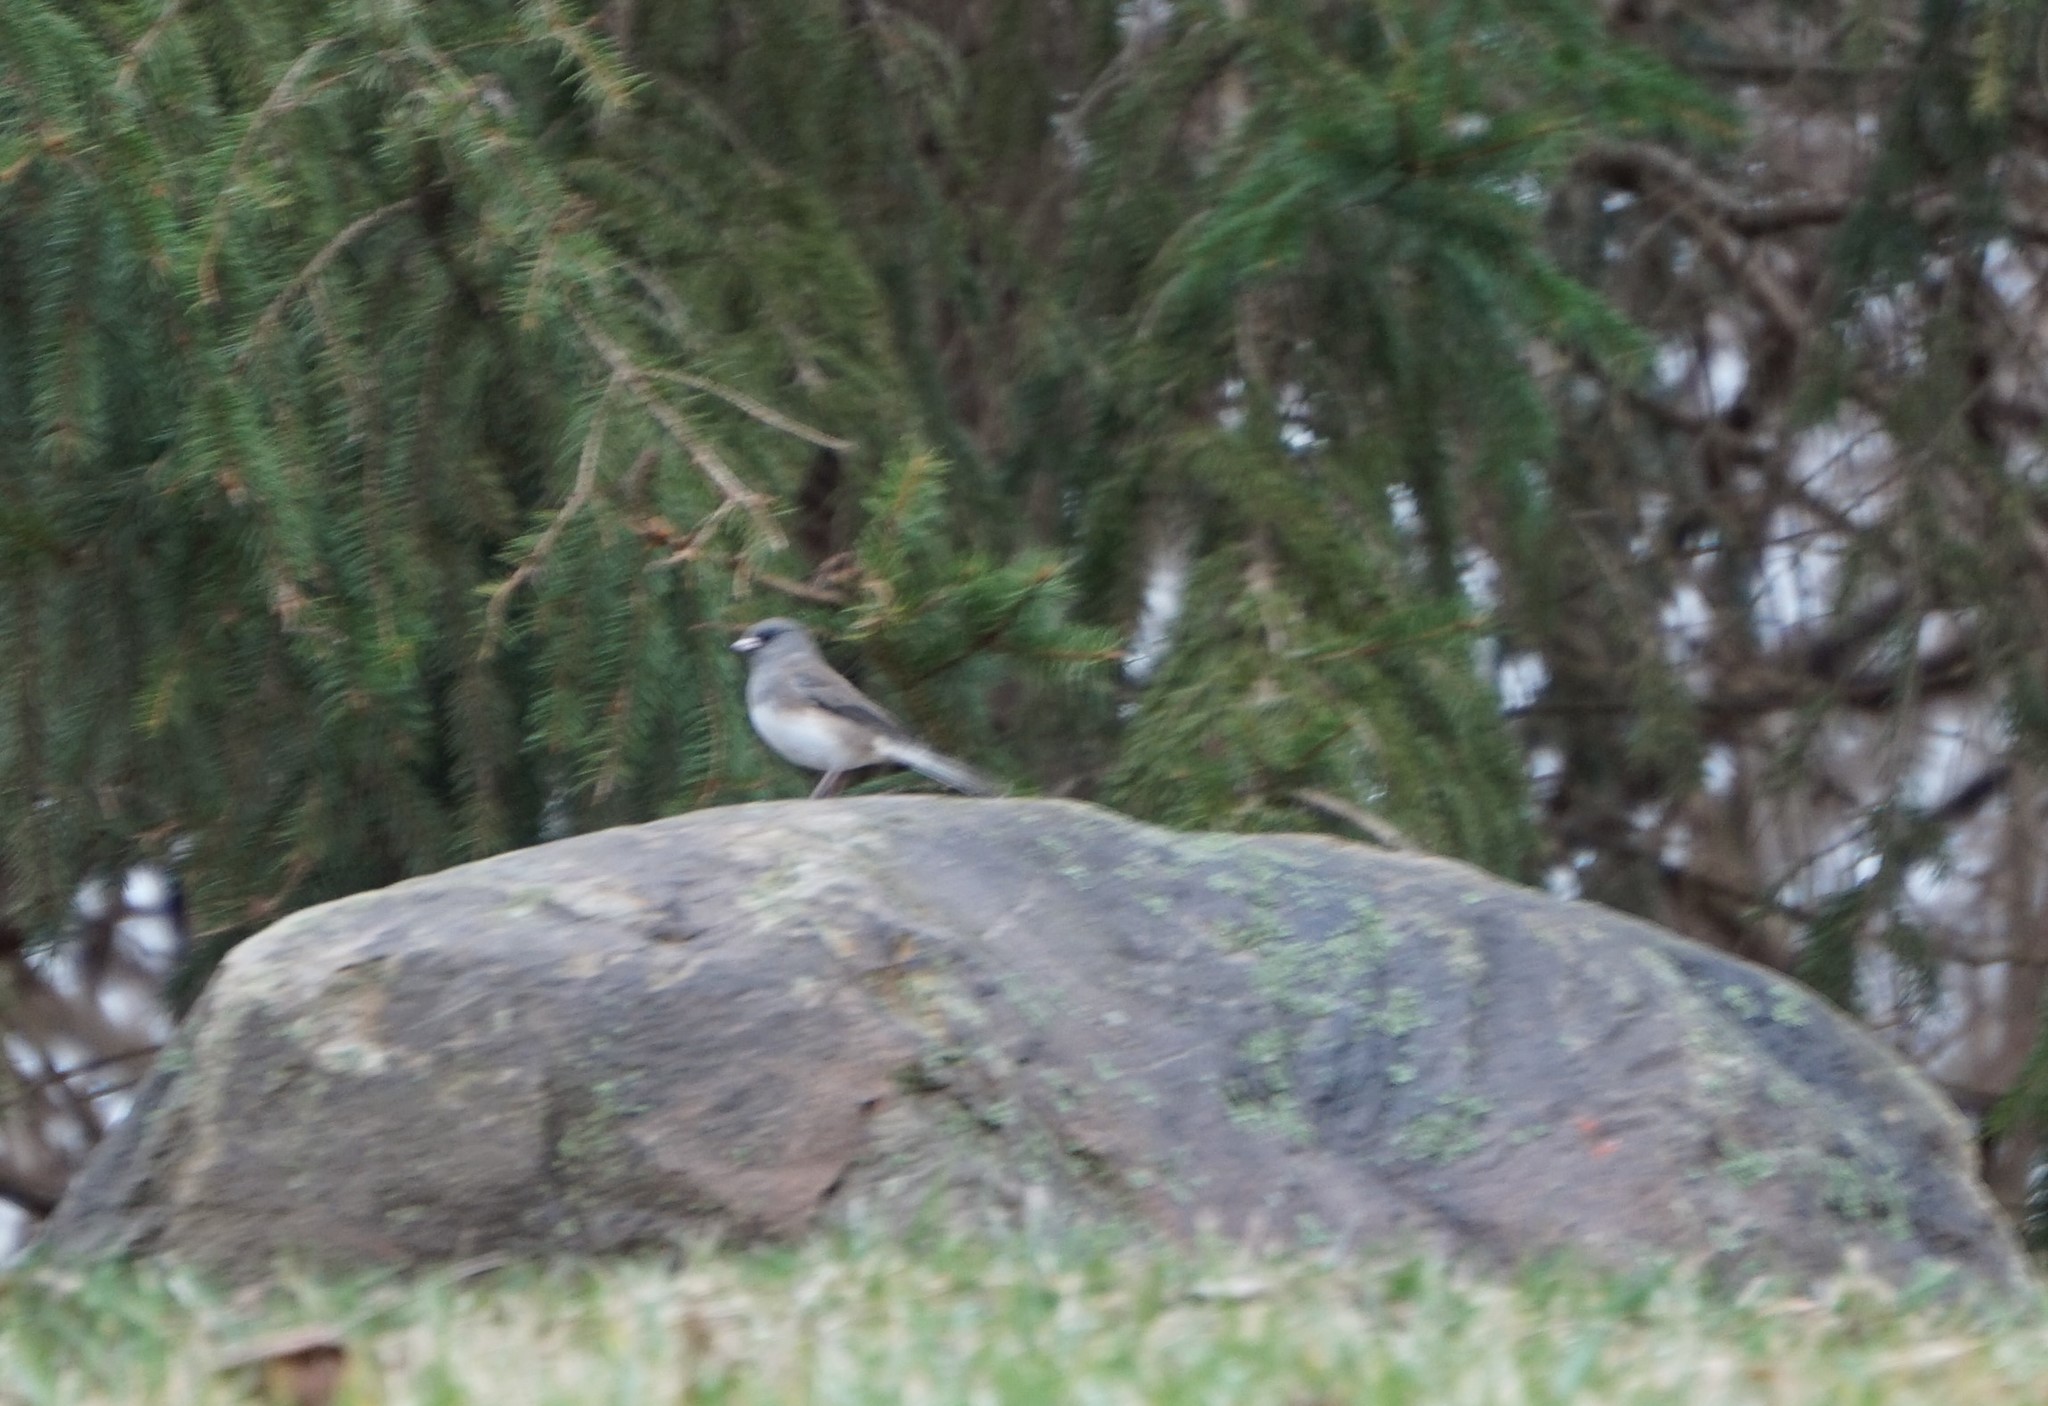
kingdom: Animalia
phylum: Chordata
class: Aves
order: Passeriformes
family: Passerellidae
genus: Junco
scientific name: Junco hyemalis
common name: Dark-eyed junco
